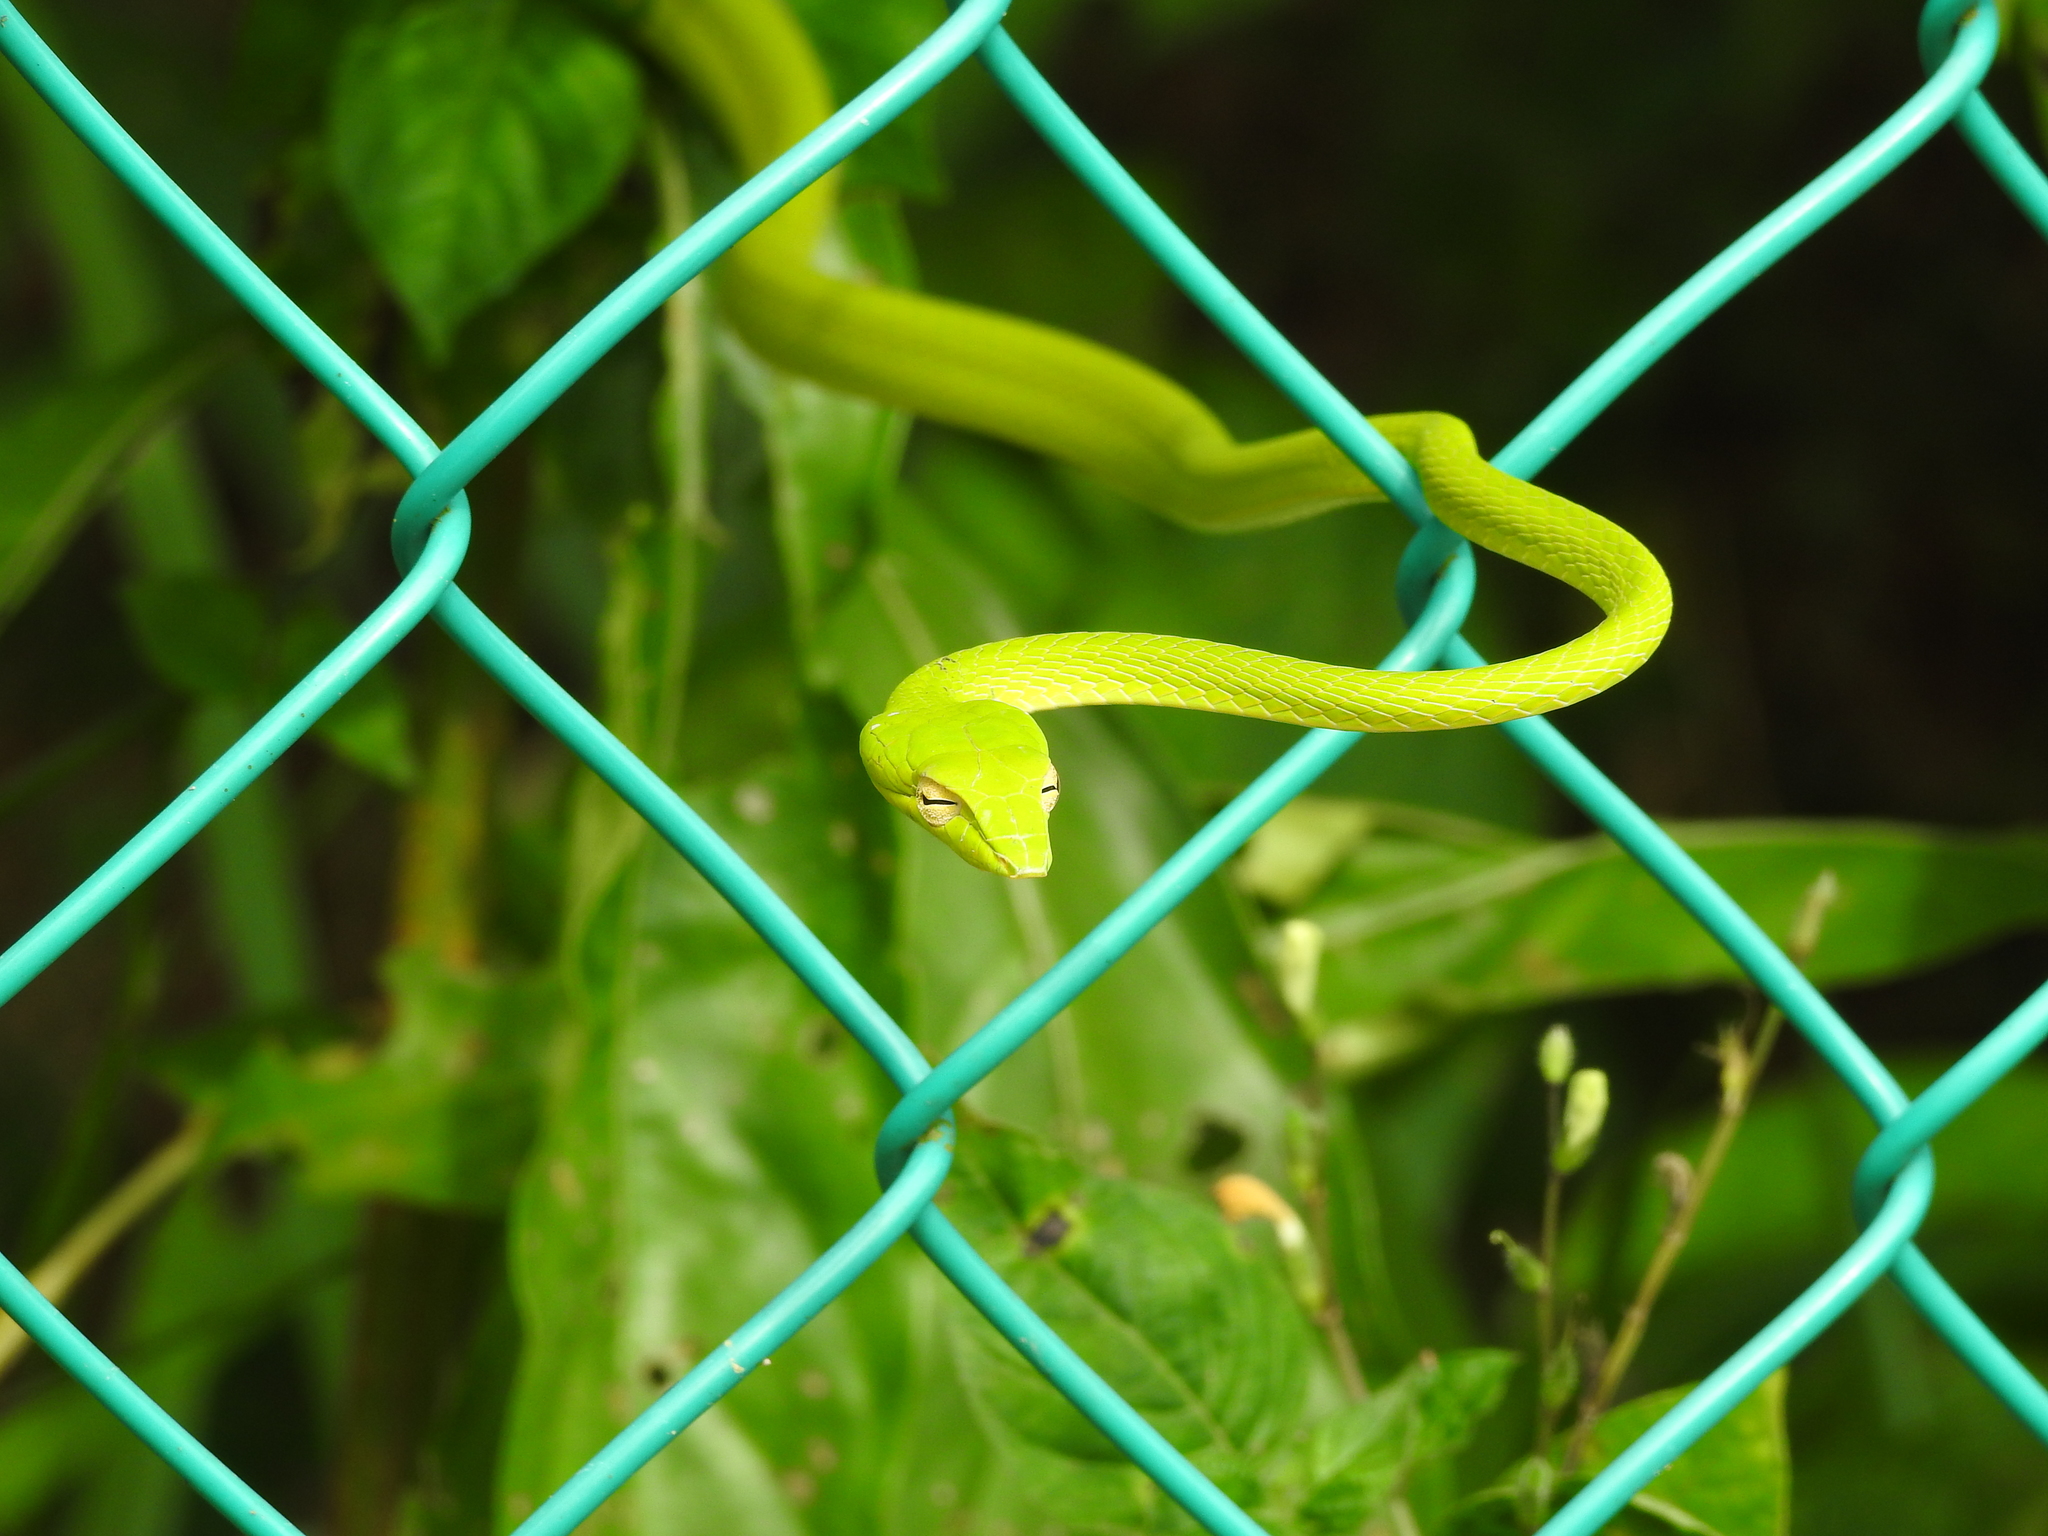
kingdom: Animalia
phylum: Chordata
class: Squamata
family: Colubridae
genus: Ahaetulla
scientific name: Ahaetulla prasina
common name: Oriental whip snake
